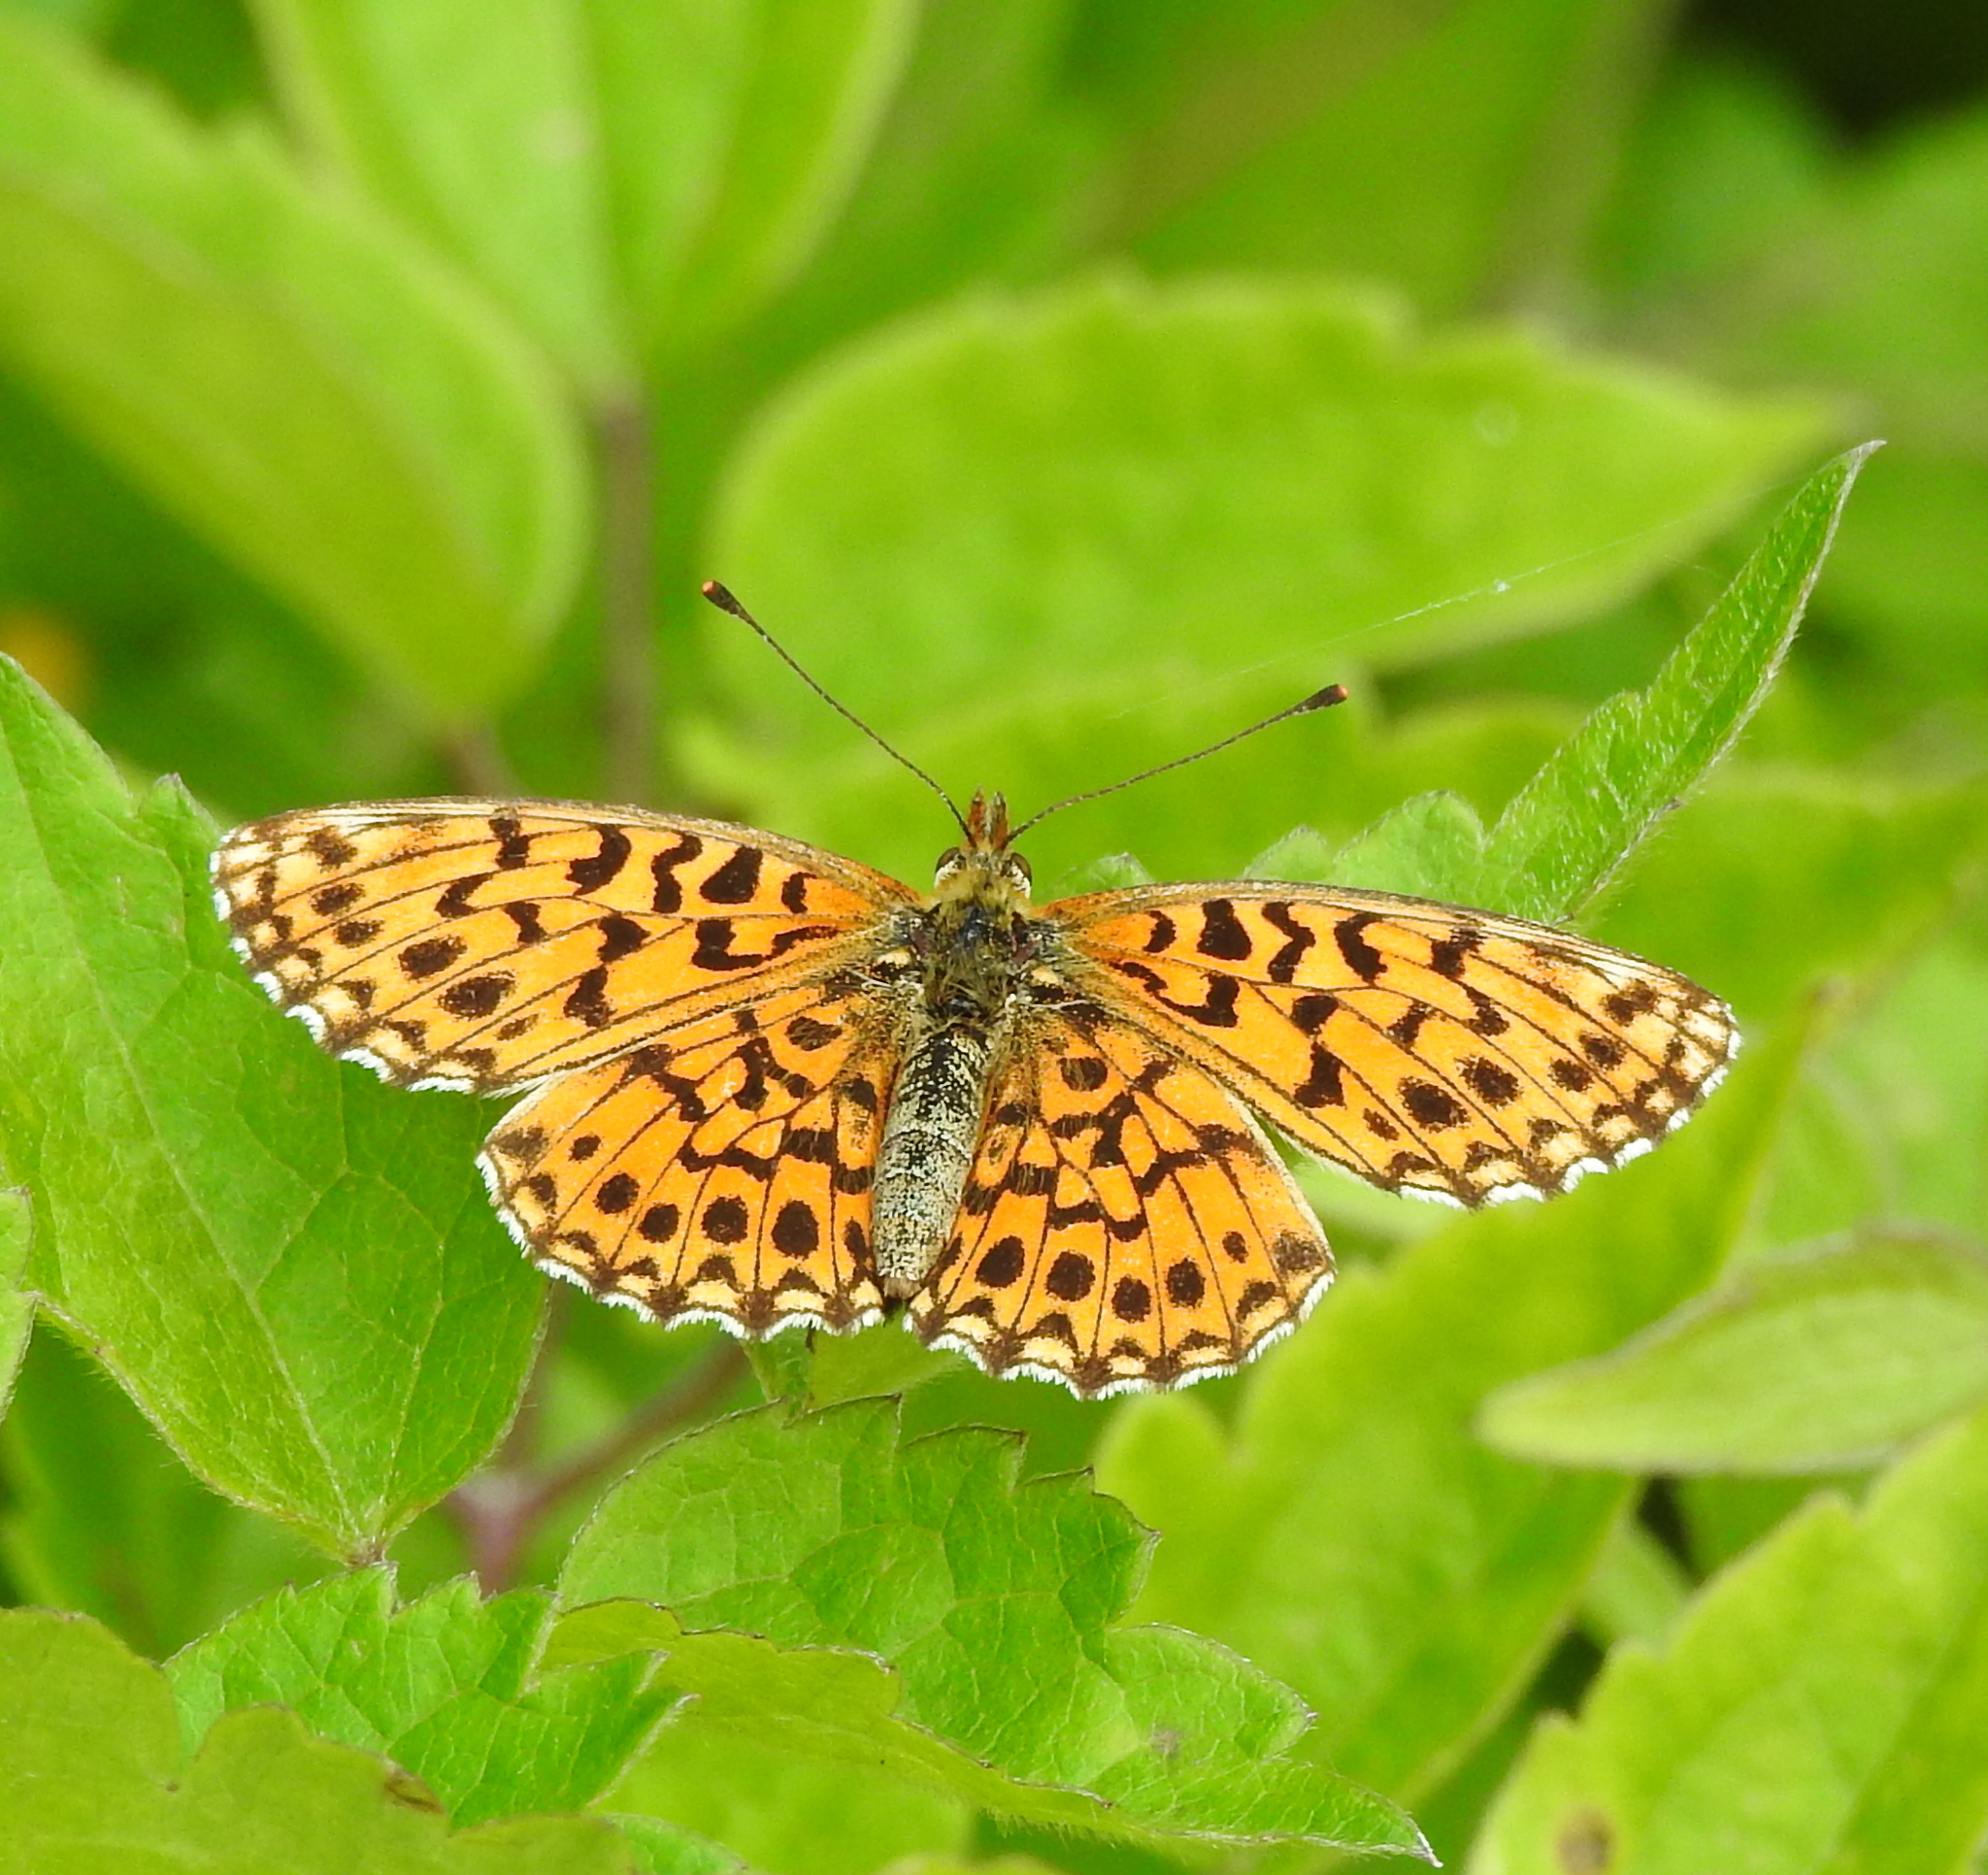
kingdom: Animalia
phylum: Arthropoda
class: Insecta
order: Lepidoptera
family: Nymphalidae
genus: Boloria
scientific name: Boloria dia
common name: Weaver's fritillary
